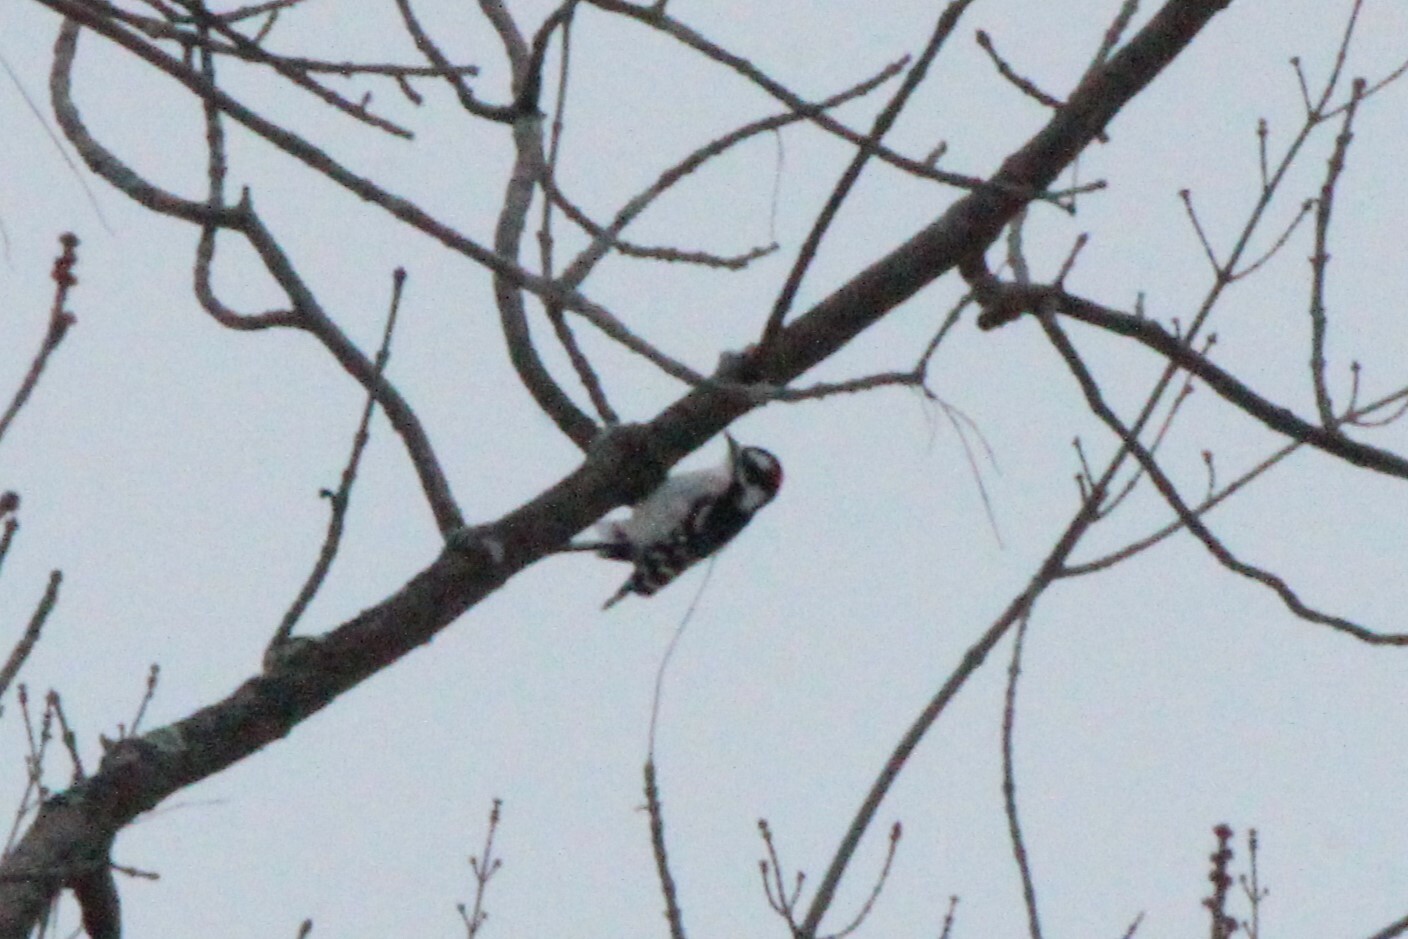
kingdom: Animalia
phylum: Chordata
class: Aves
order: Piciformes
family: Picidae
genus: Dryobates
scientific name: Dryobates pubescens
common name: Downy woodpecker
